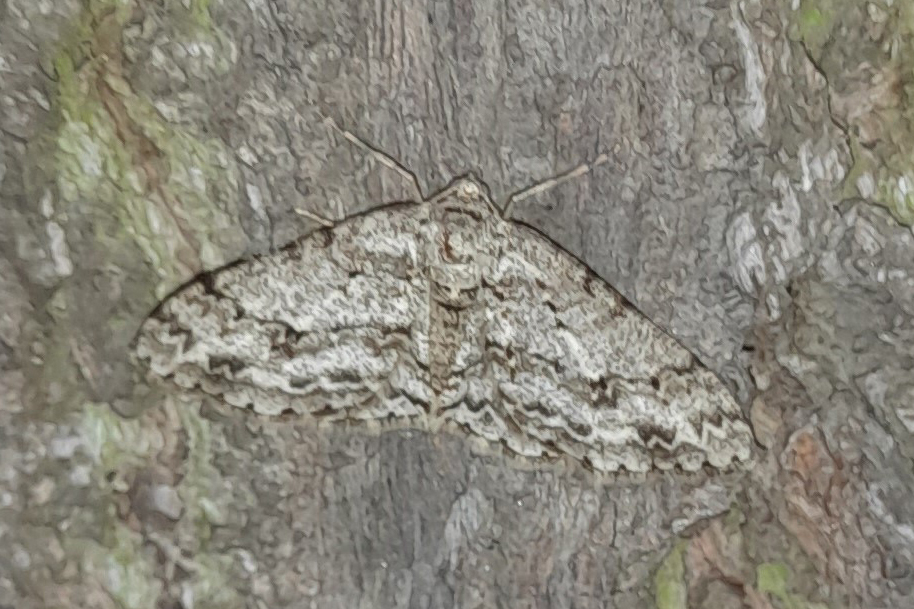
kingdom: Animalia
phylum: Arthropoda
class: Insecta
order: Lepidoptera
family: Geometridae
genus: Ectropis
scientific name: Ectropis crepuscularia
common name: Engrailed
